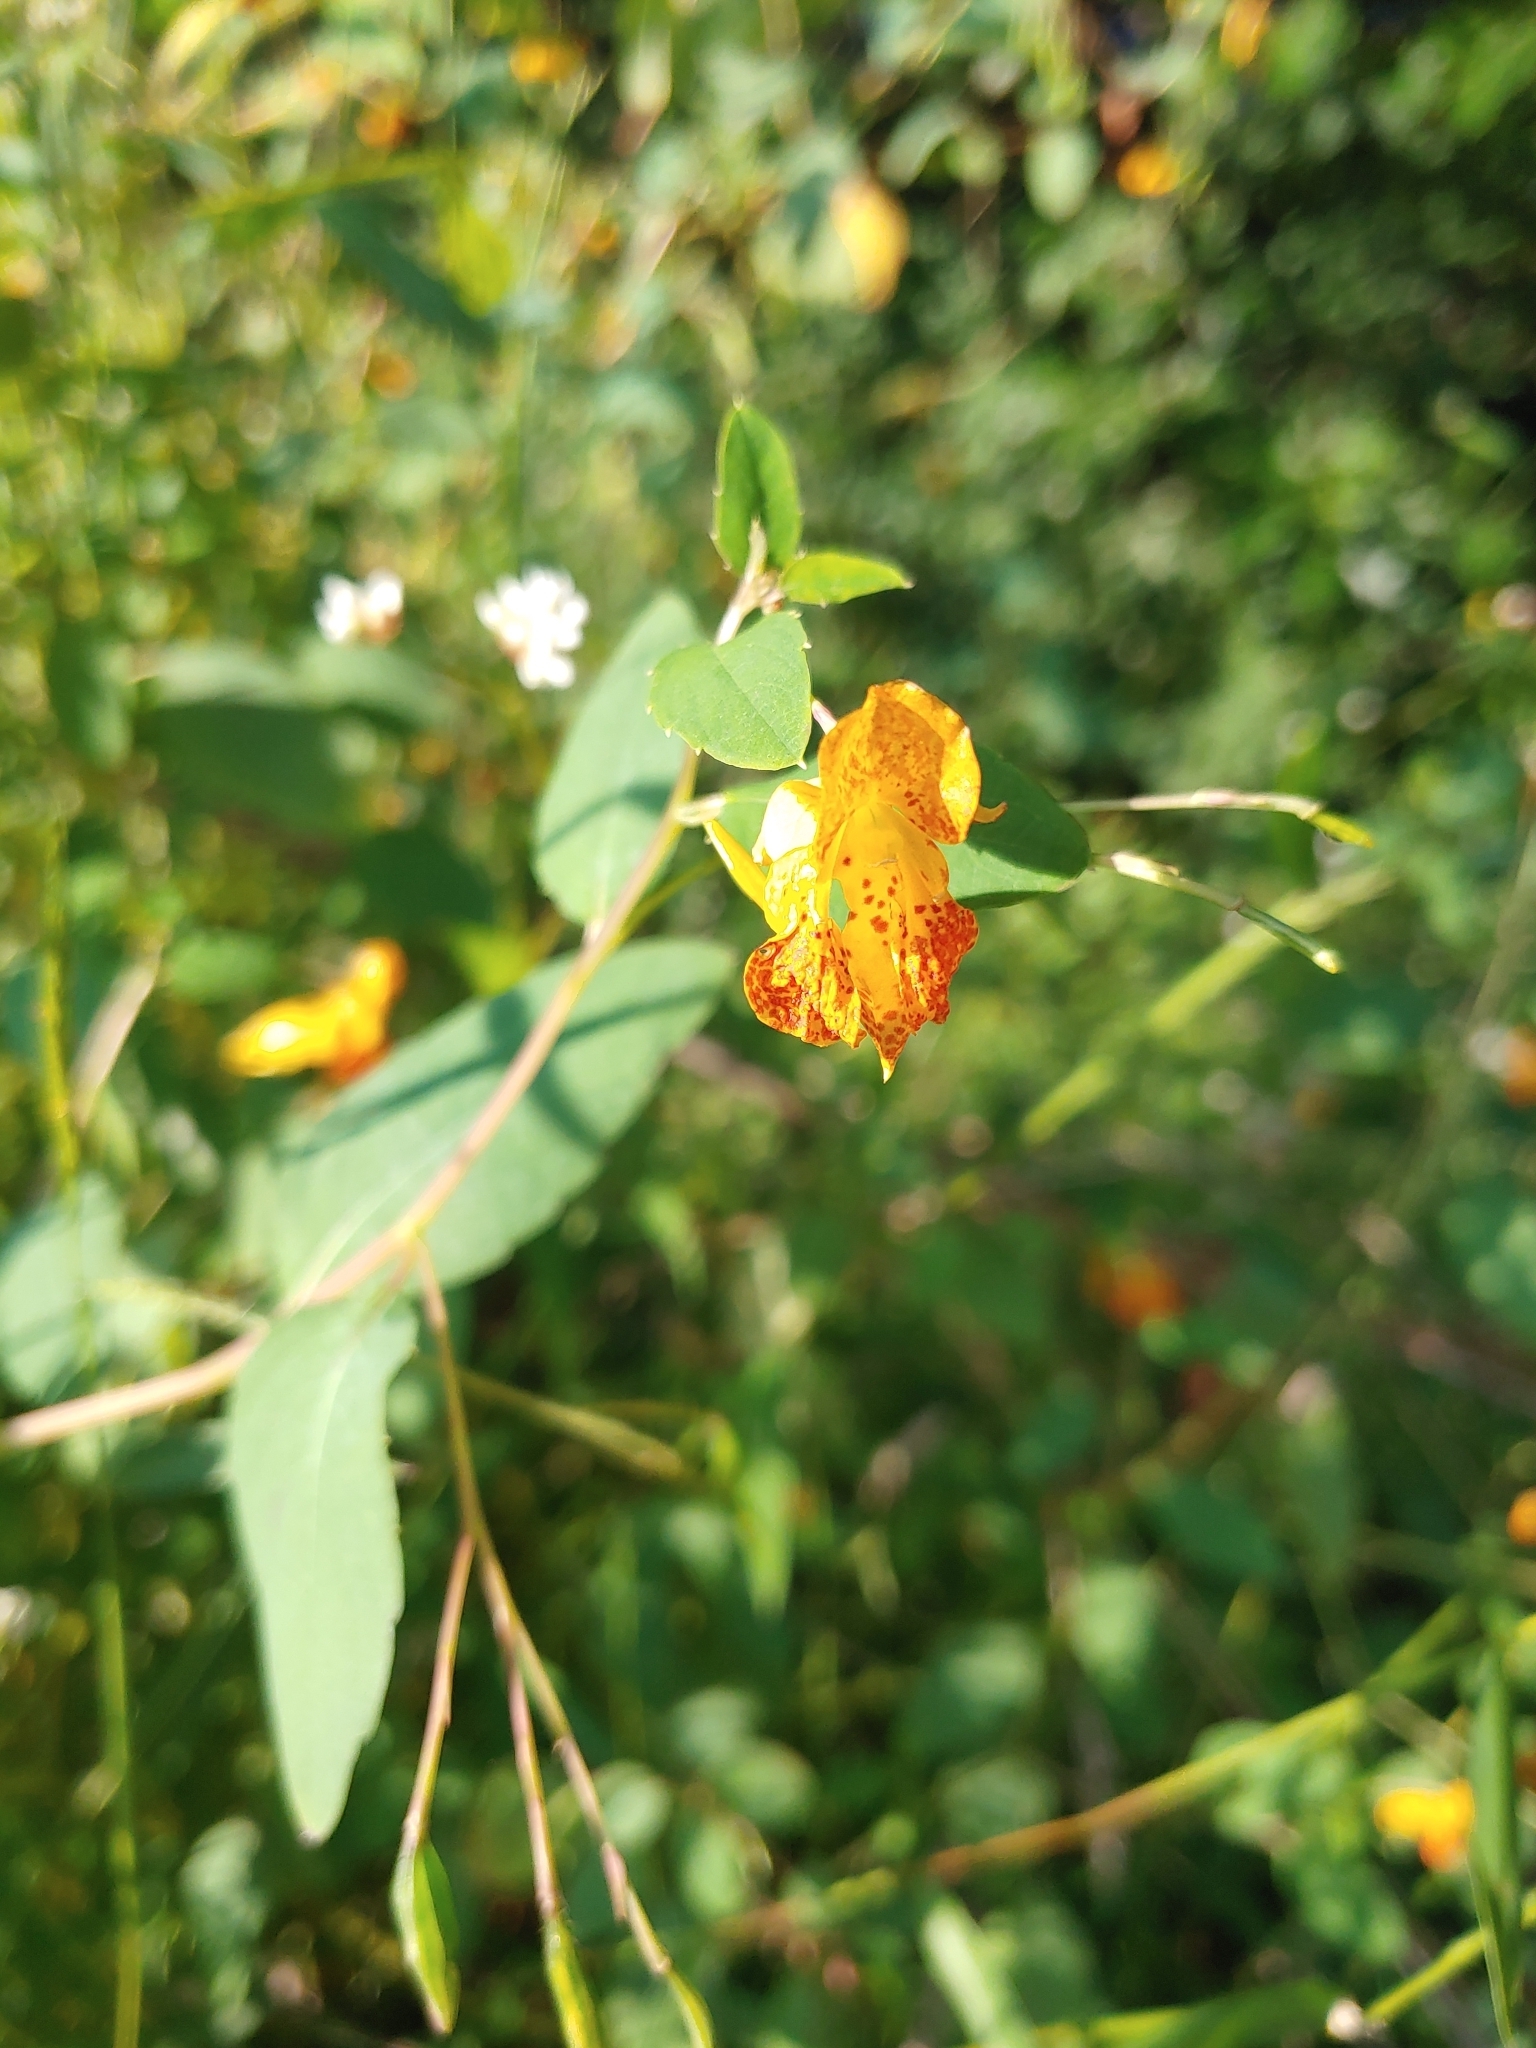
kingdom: Plantae
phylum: Tracheophyta
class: Magnoliopsida
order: Ericales
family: Balsaminaceae
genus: Impatiens
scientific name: Impatiens capensis
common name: Orange balsam
